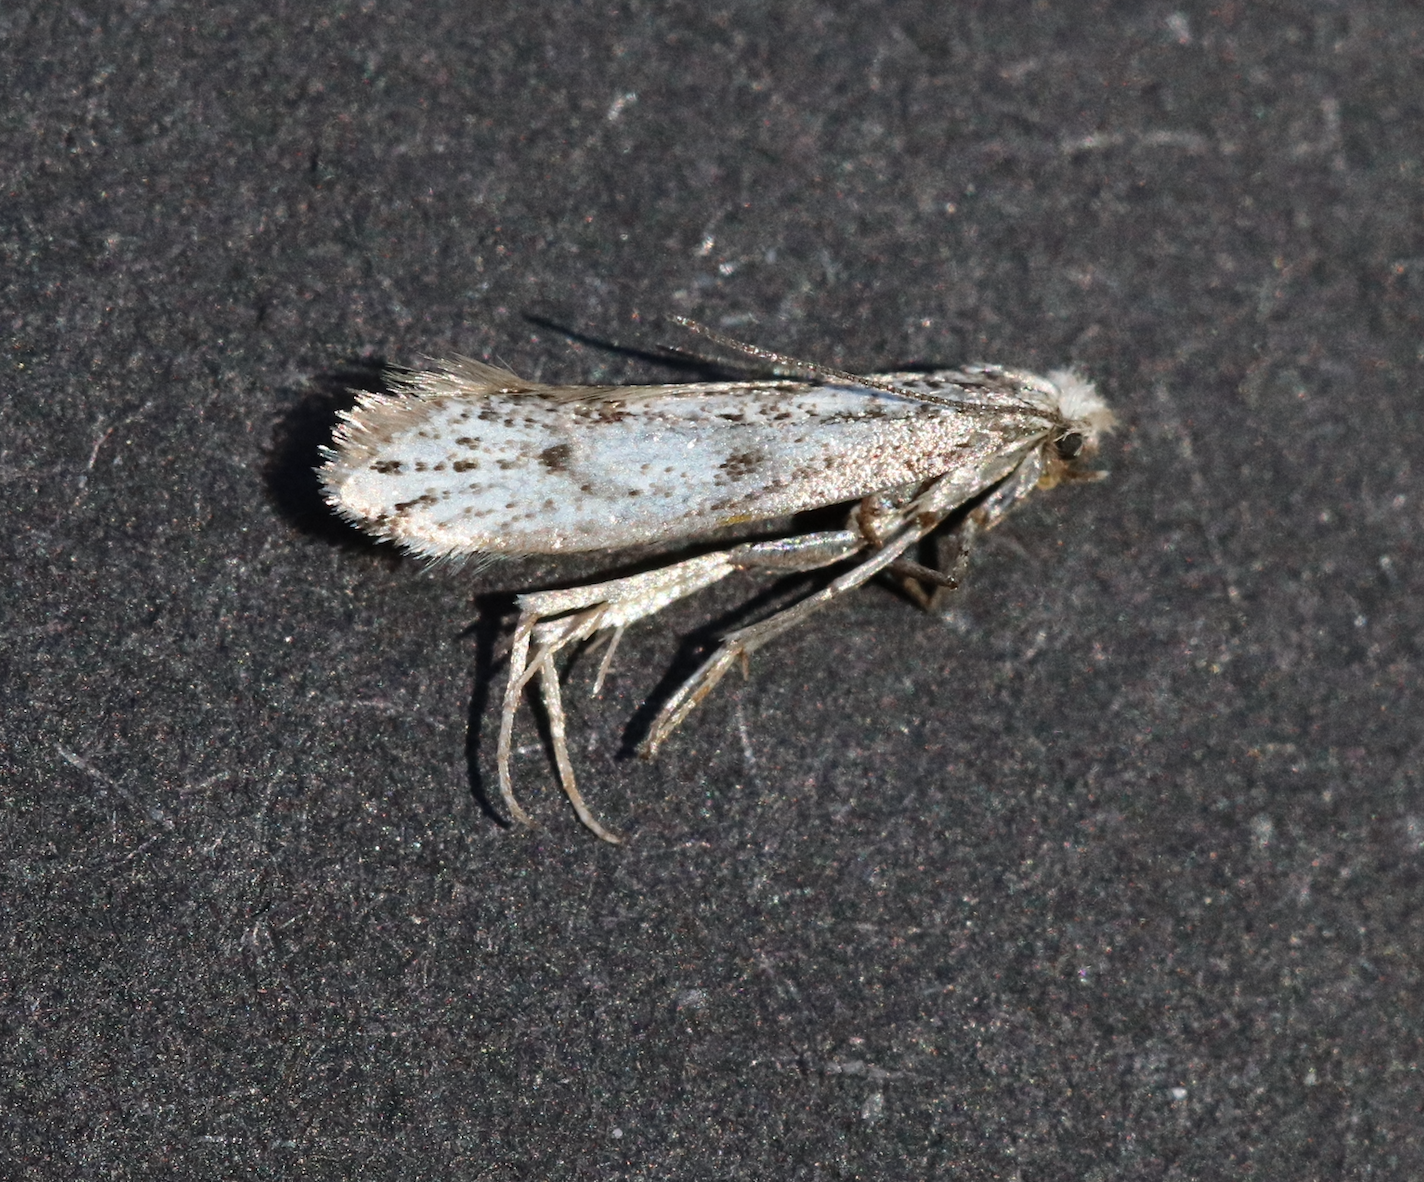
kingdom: Animalia
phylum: Arthropoda
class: Insecta
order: Lepidoptera
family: Yponomeutidae
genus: Paraswammerdamia
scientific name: Paraswammerdamia conspersella
